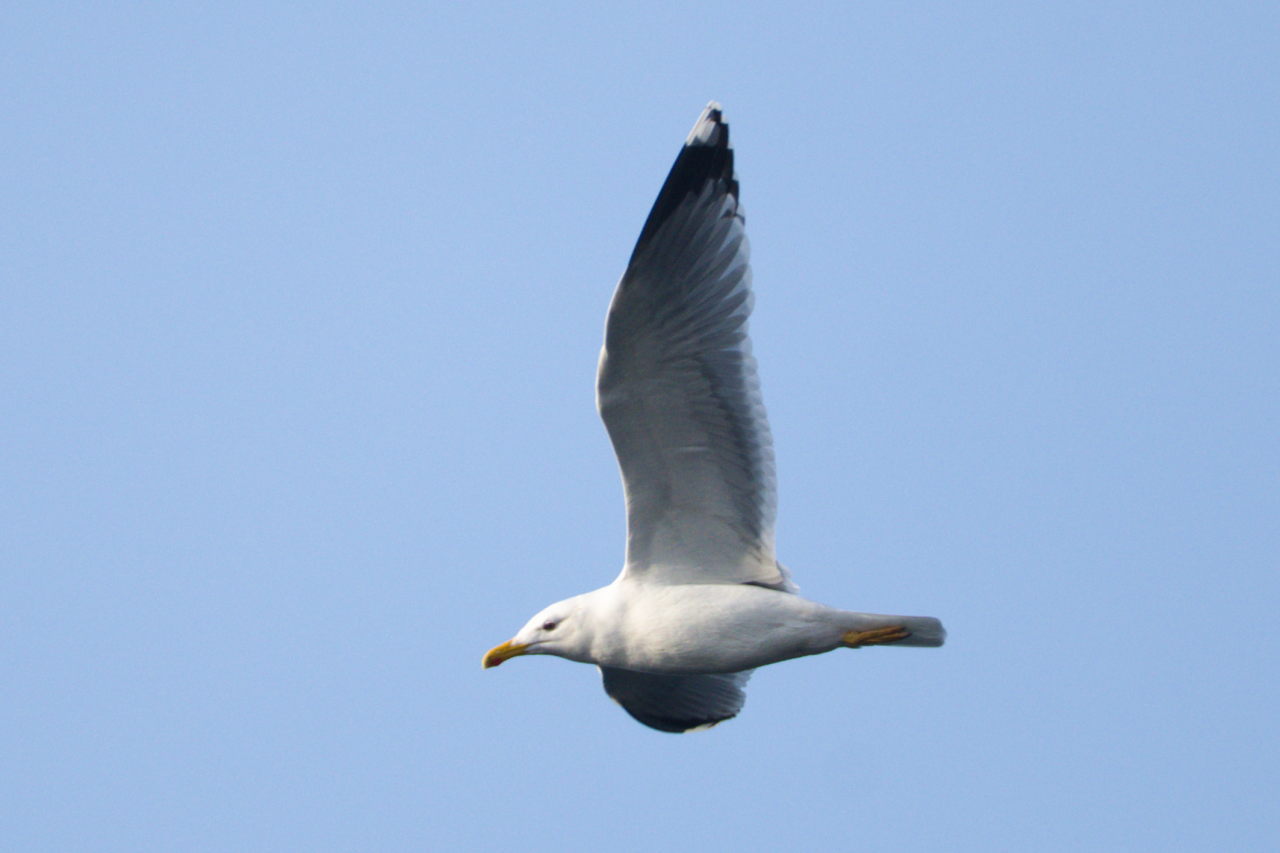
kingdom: Animalia
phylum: Chordata
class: Aves
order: Charadriiformes
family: Laridae
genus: Larus
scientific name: Larus michahellis
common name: Yellow-legged gull
